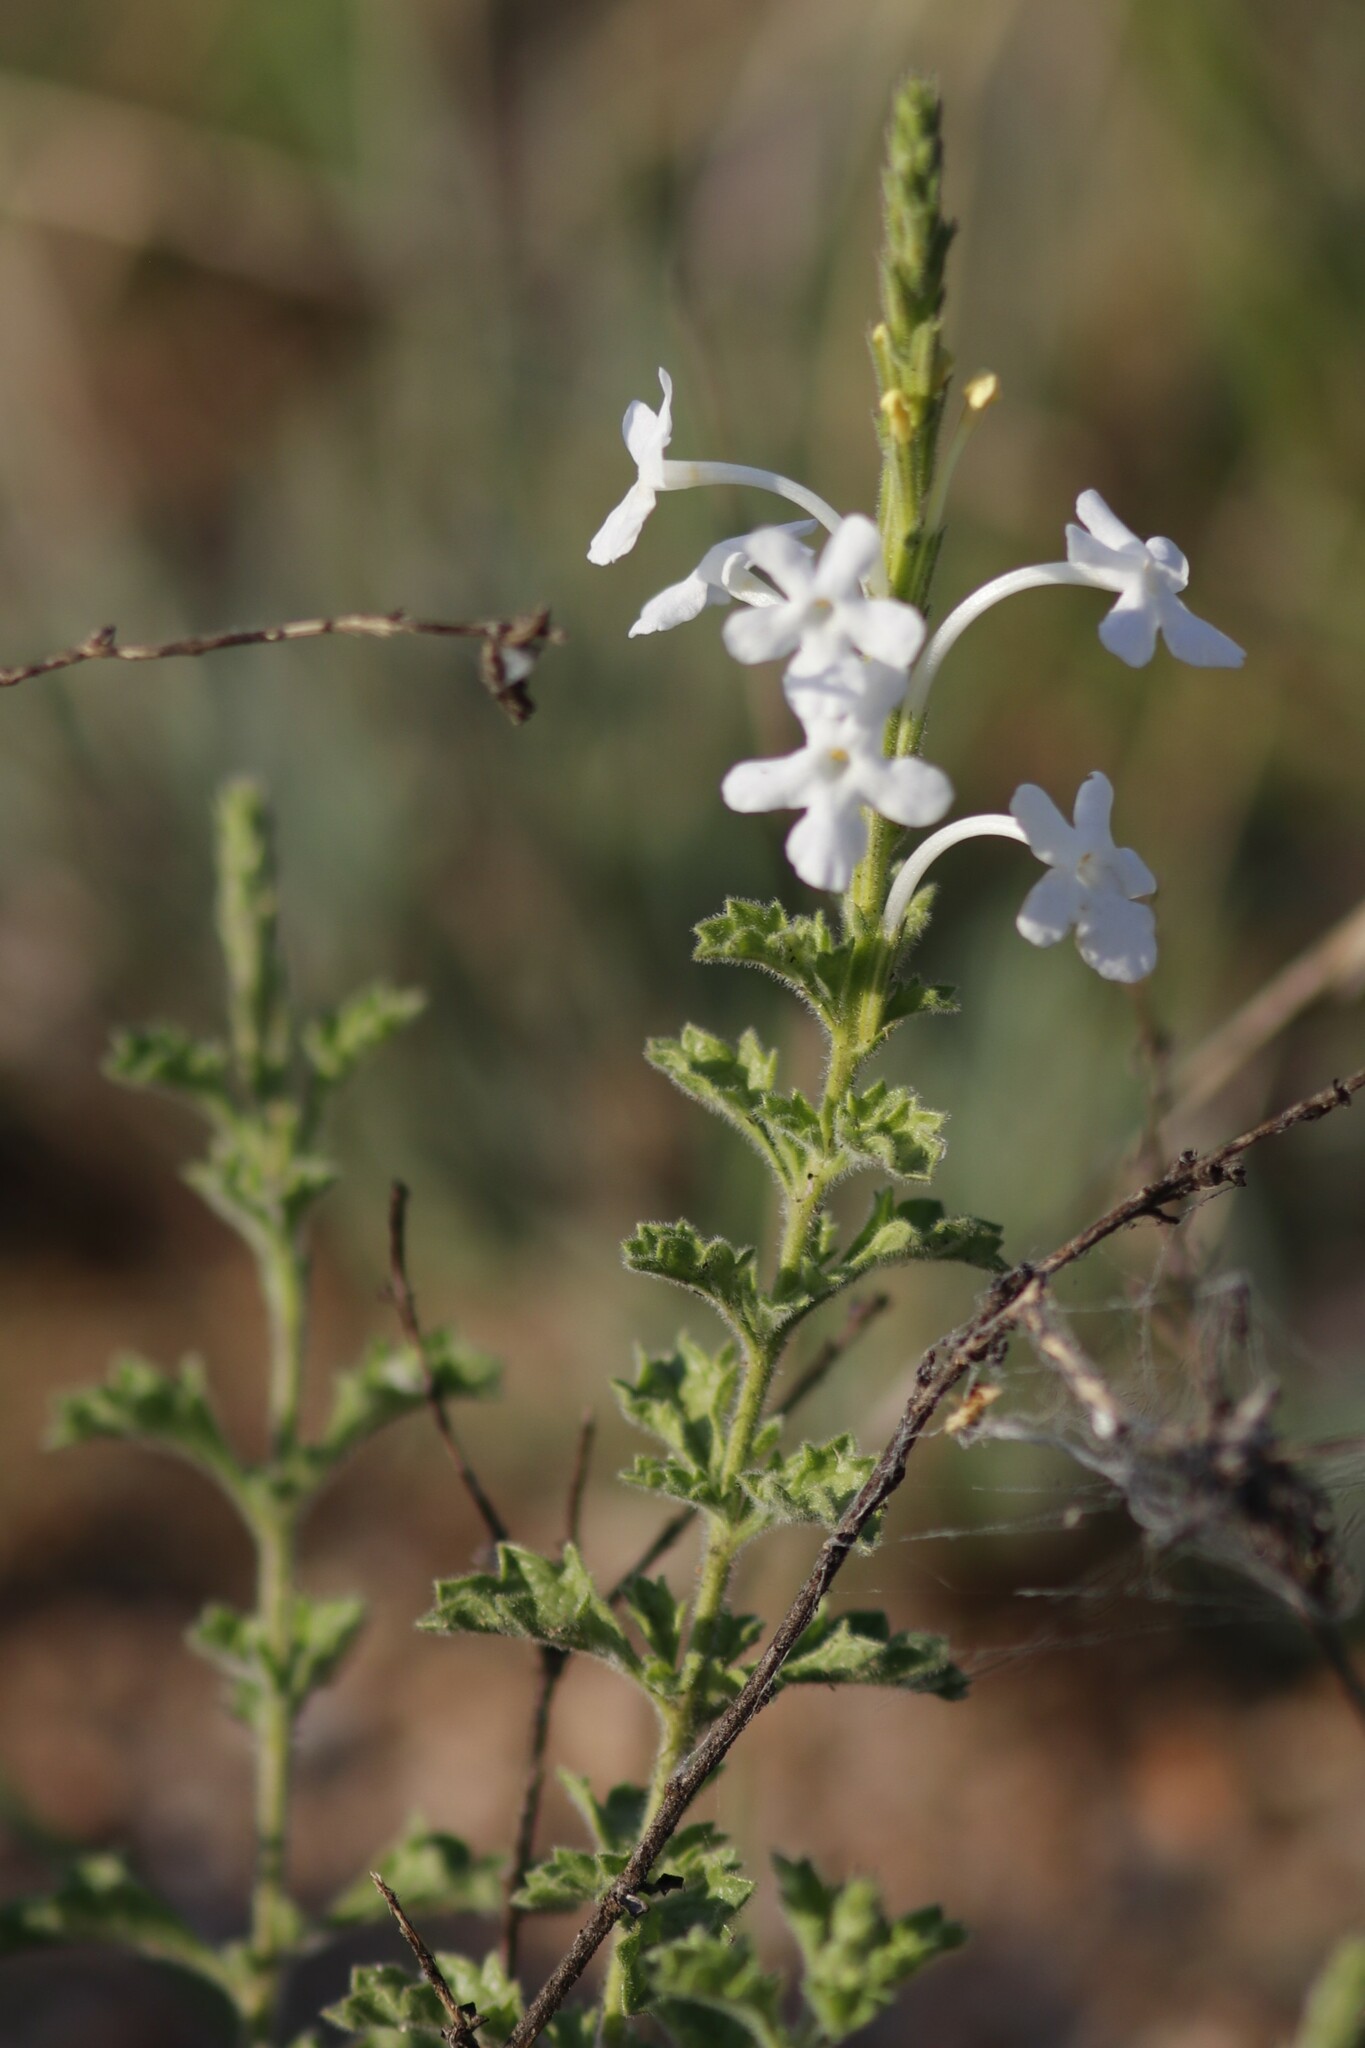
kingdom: Plantae
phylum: Tracheophyta
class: Magnoliopsida
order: Lamiales
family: Verbenaceae
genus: Chascanum
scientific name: Chascanum hederaceum
